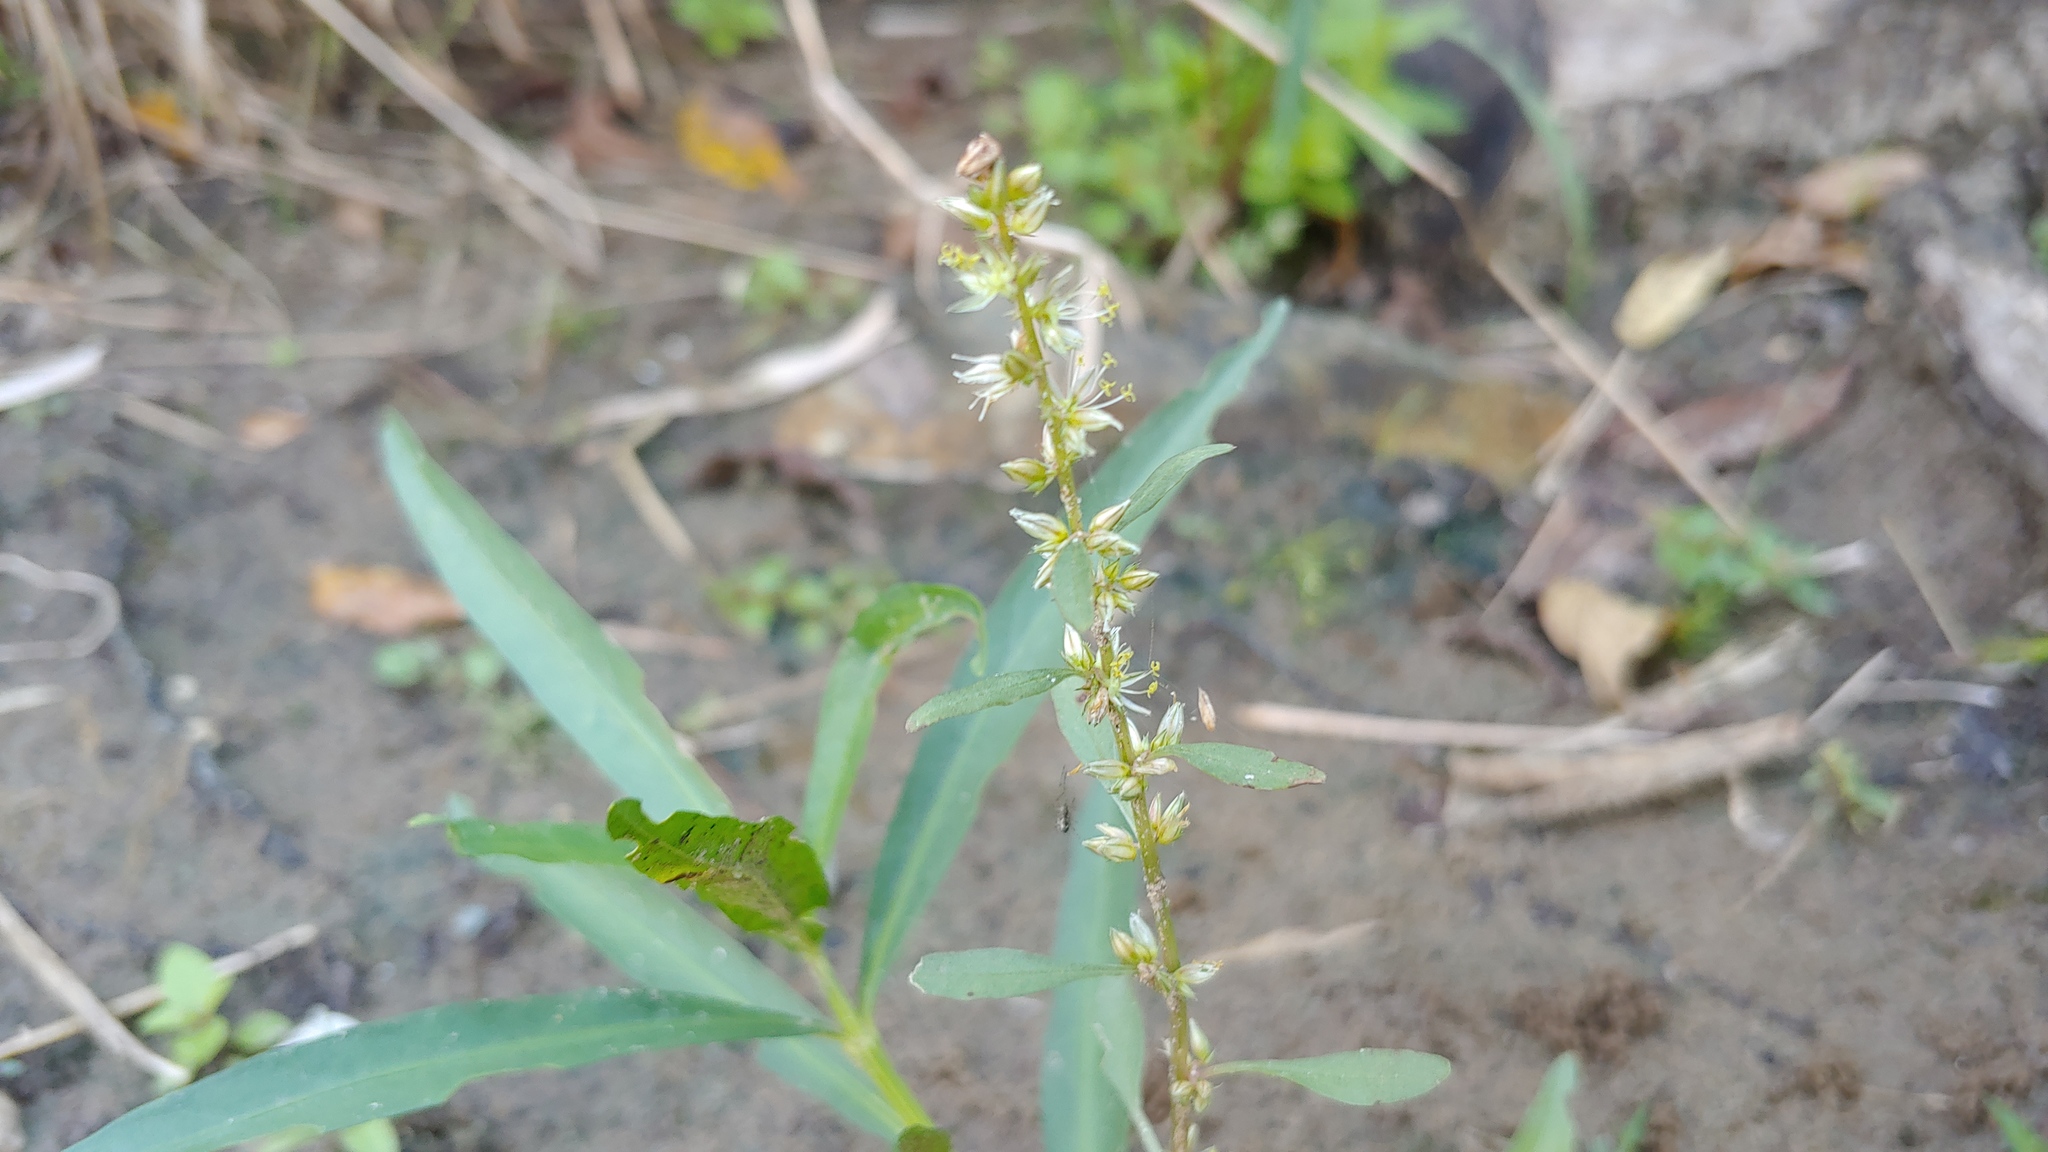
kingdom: Plantae
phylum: Tracheophyta
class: Magnoliopsida
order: Caryophyllales
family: Amaranthaceae
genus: Amaranthus
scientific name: Amaranthus tuberculatus
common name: Rough-fruit amaranth
